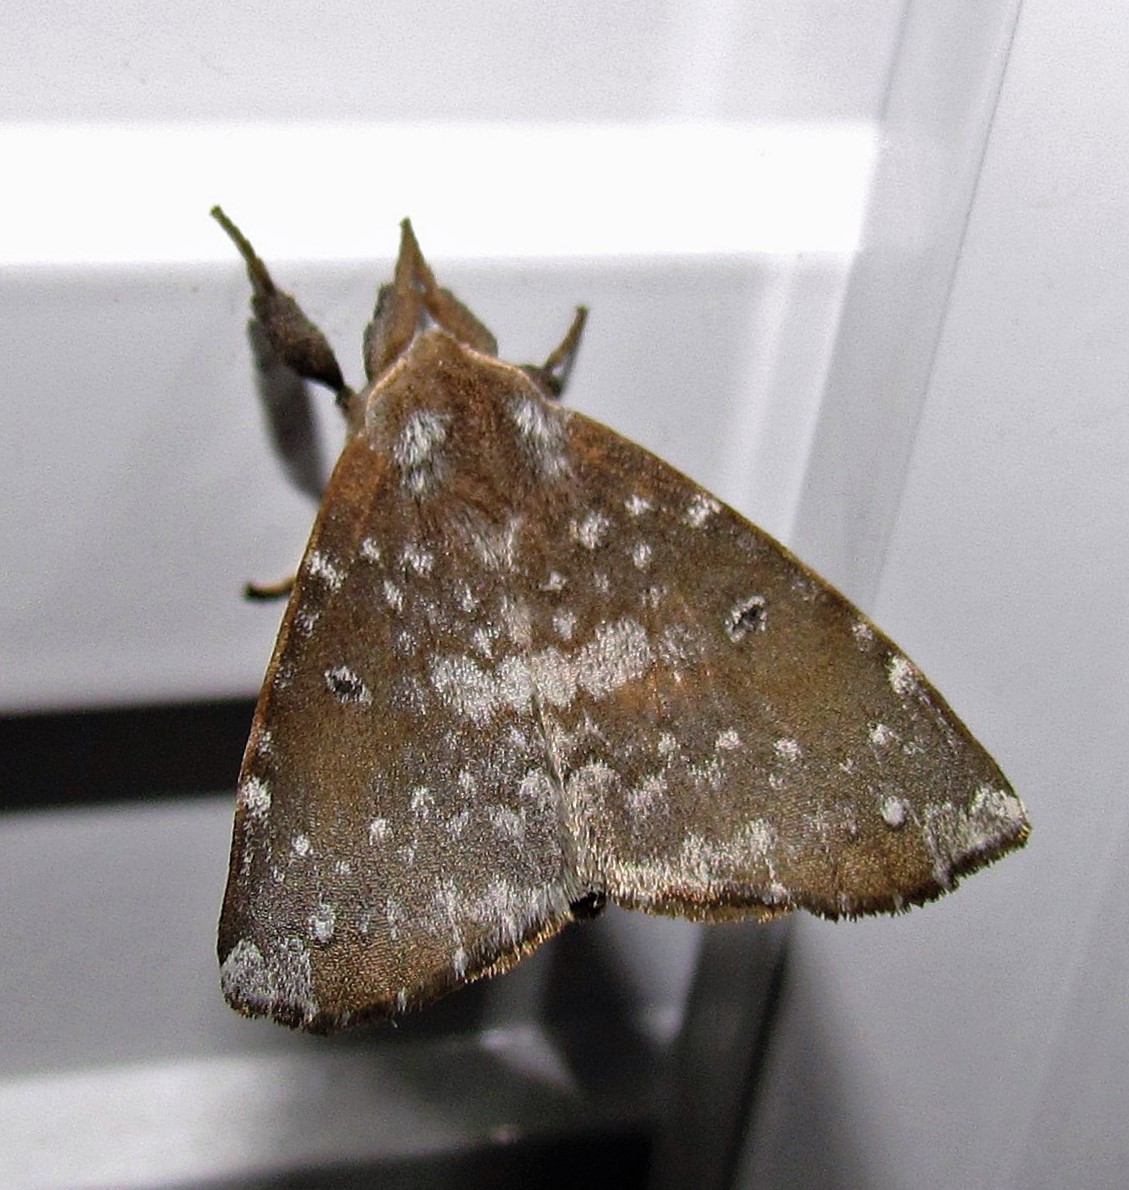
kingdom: Animalia
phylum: Arthropoda
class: Insecta
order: Lepidoptera
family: Apatelodidae
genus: Hygrochroa
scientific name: Hygrochroa
